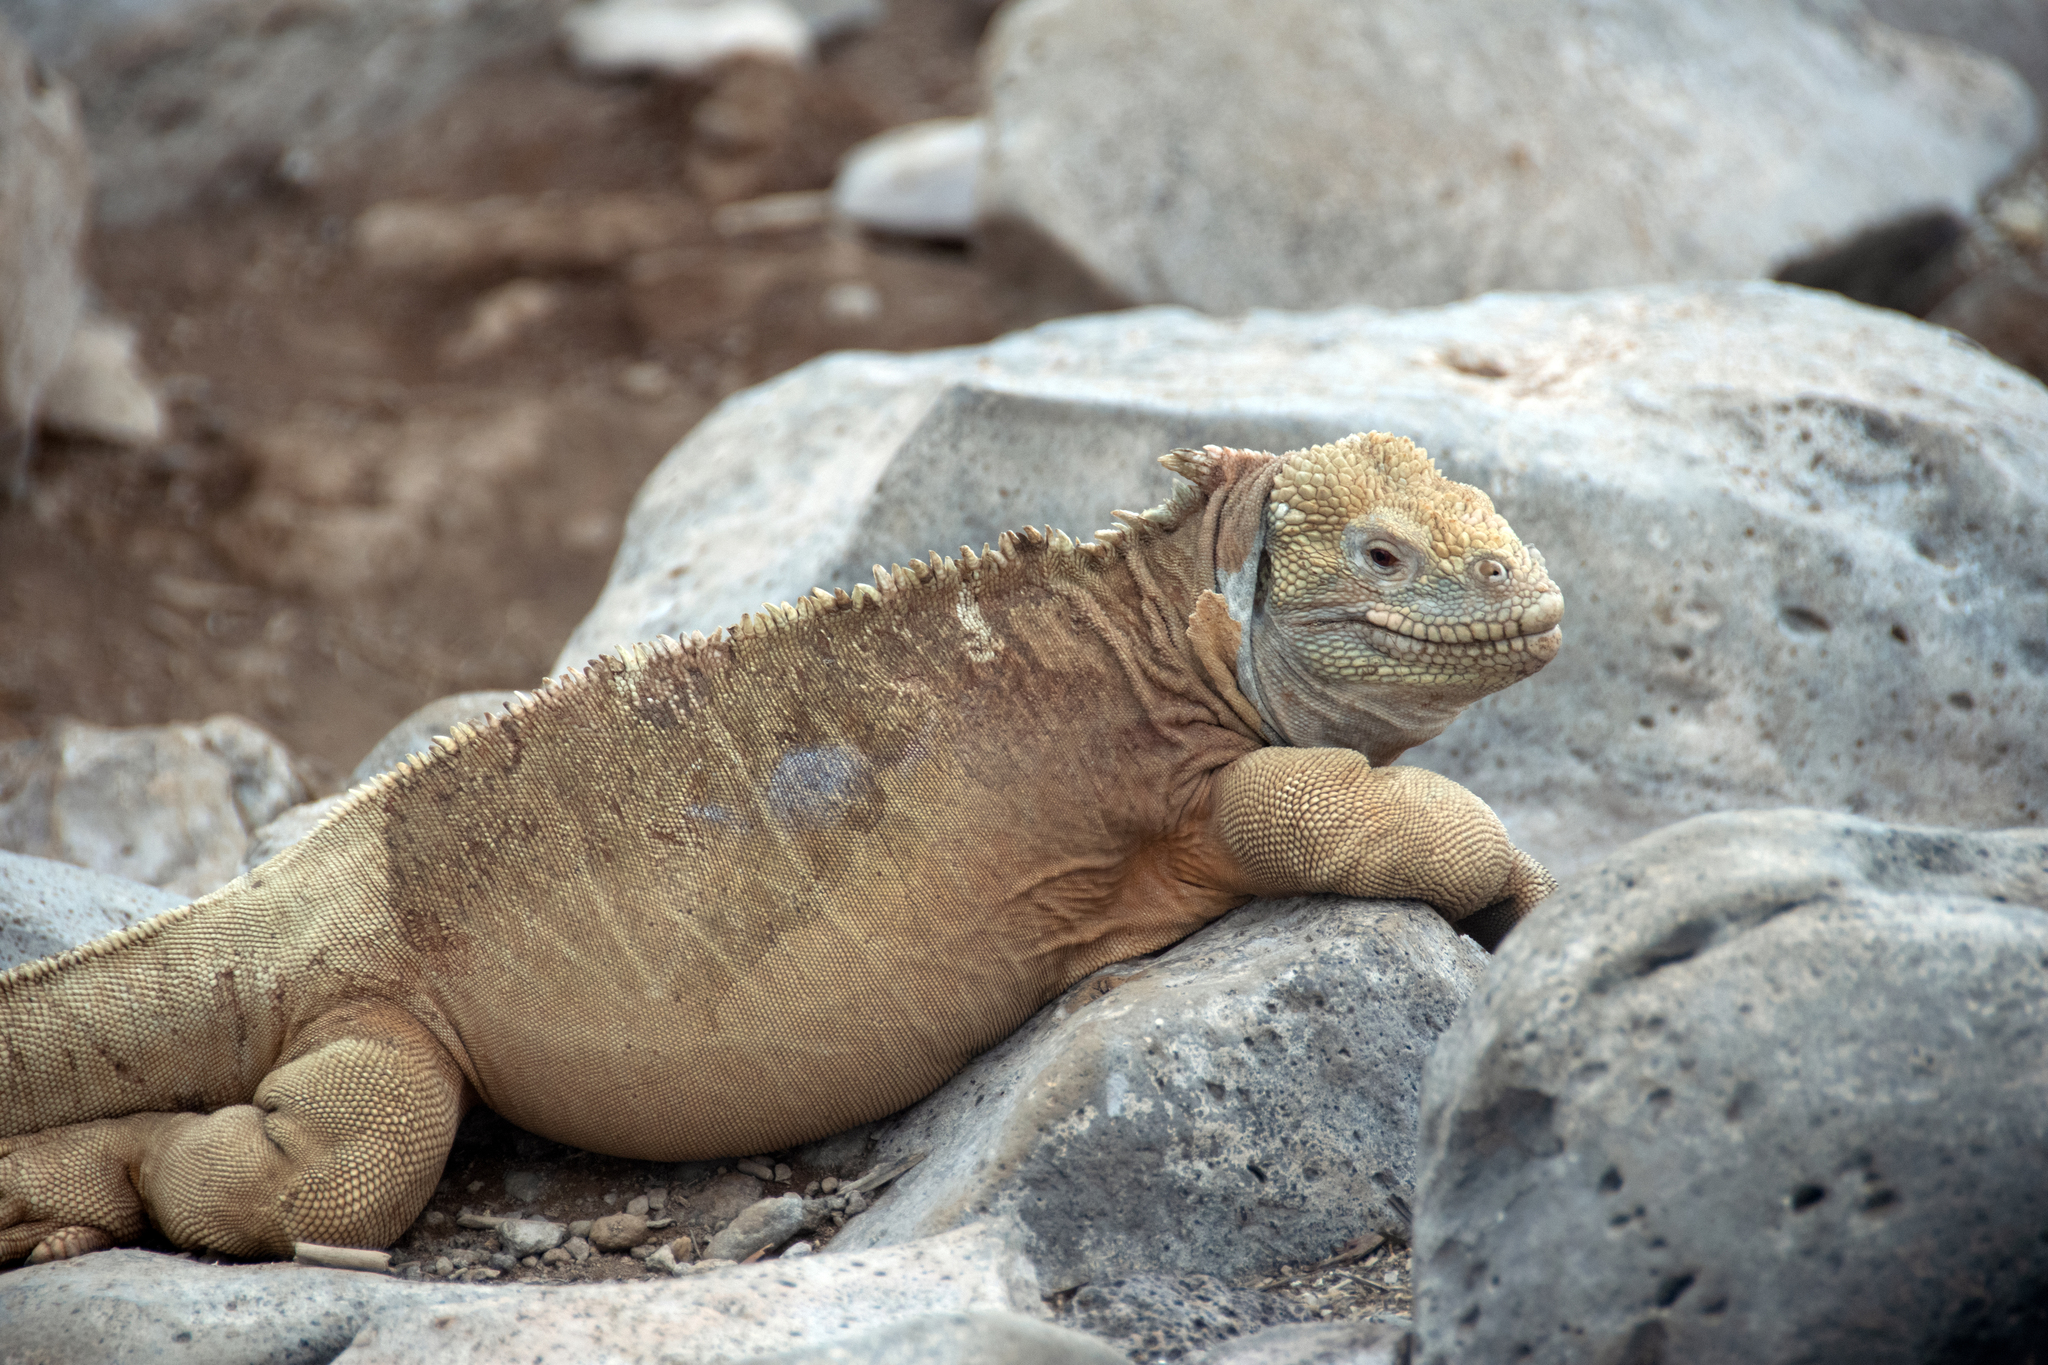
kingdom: Animalia
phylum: Chordata
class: Squamata
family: Iguanidae
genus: Conolophus
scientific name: Conolophus pallidus
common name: Santa fe land iguana
